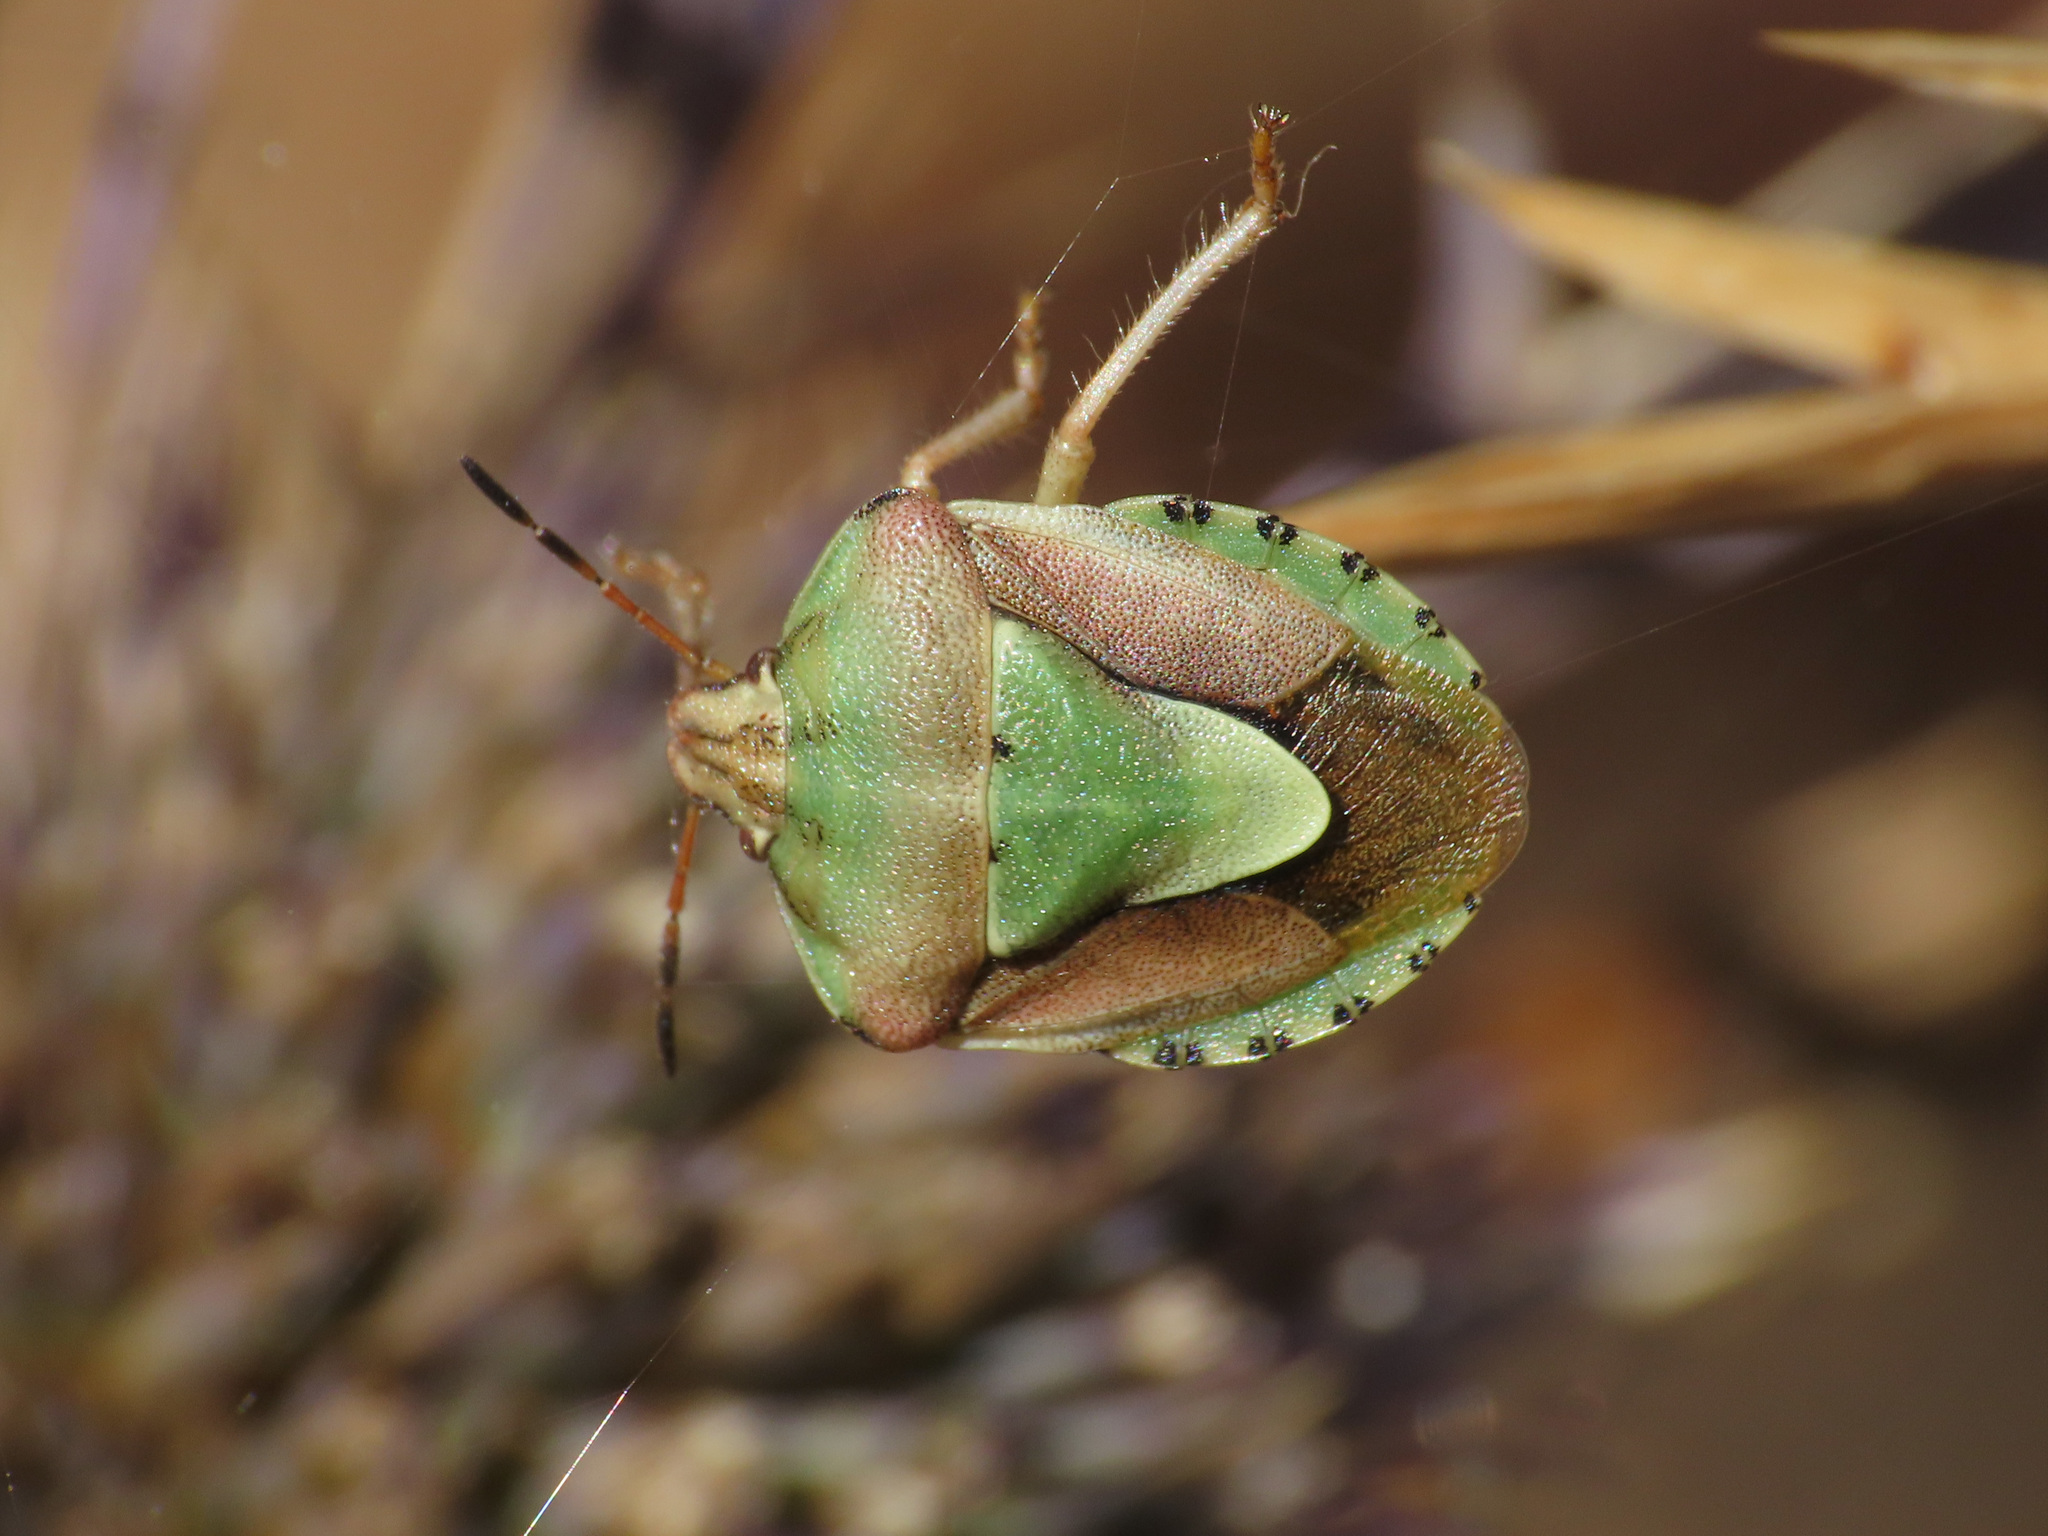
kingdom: Animalia
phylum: Arthropoda
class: Insecta
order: Hemiptera
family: Pentatomidae
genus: Antheminia
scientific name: Antheminia lunulata
